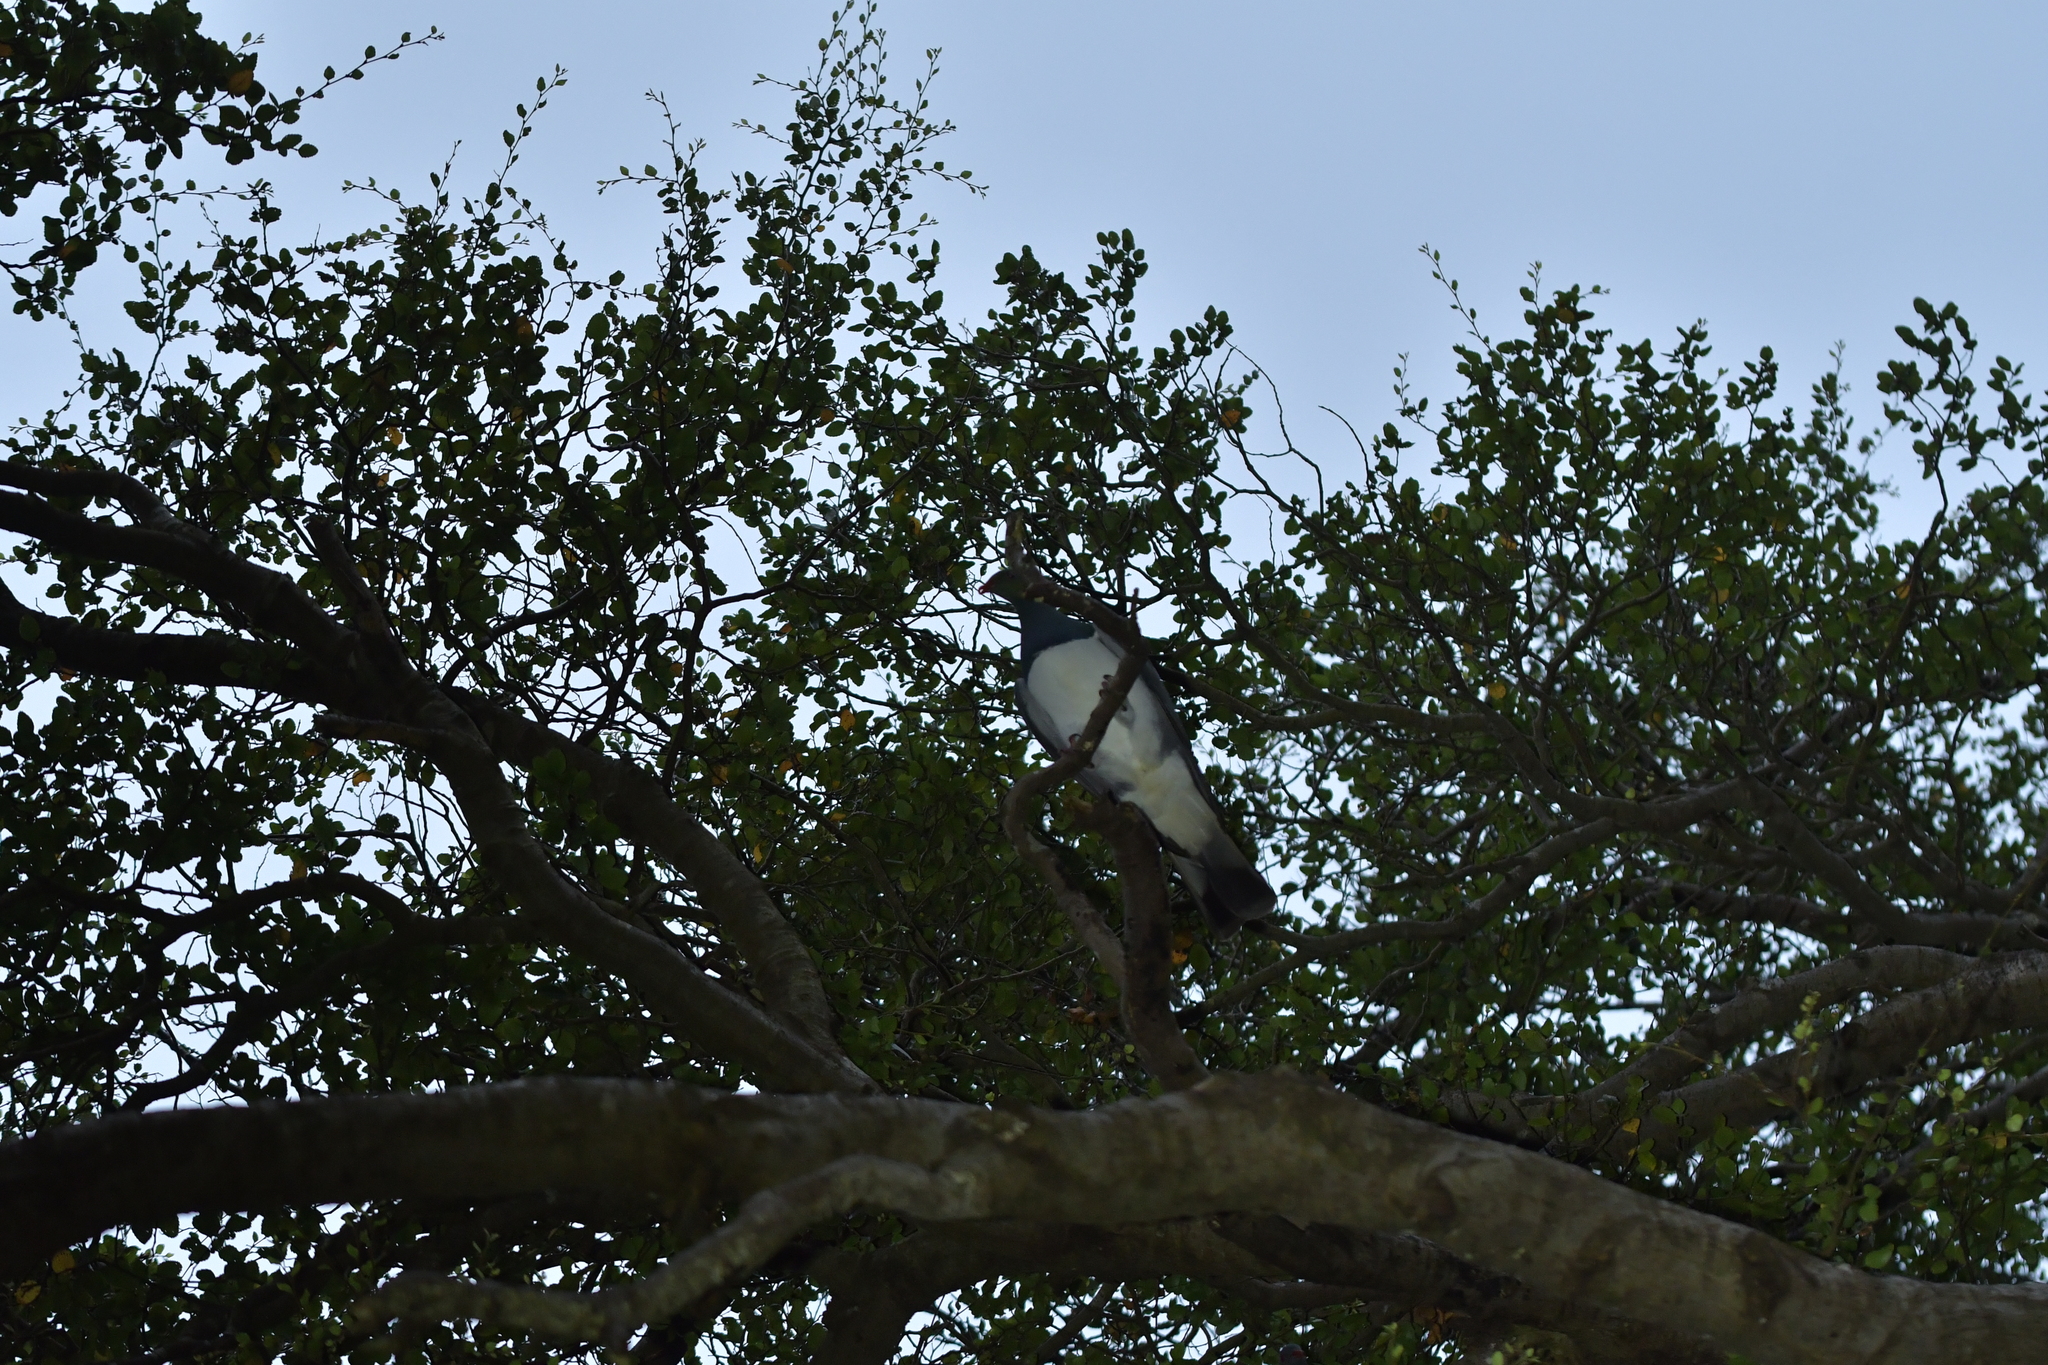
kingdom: Animalia
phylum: Chordata
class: Aves
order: Columbiformes
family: Columbidae
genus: Hemiphaga
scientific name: Hemiphaga novaeseelandiae
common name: New zealand pigeon
